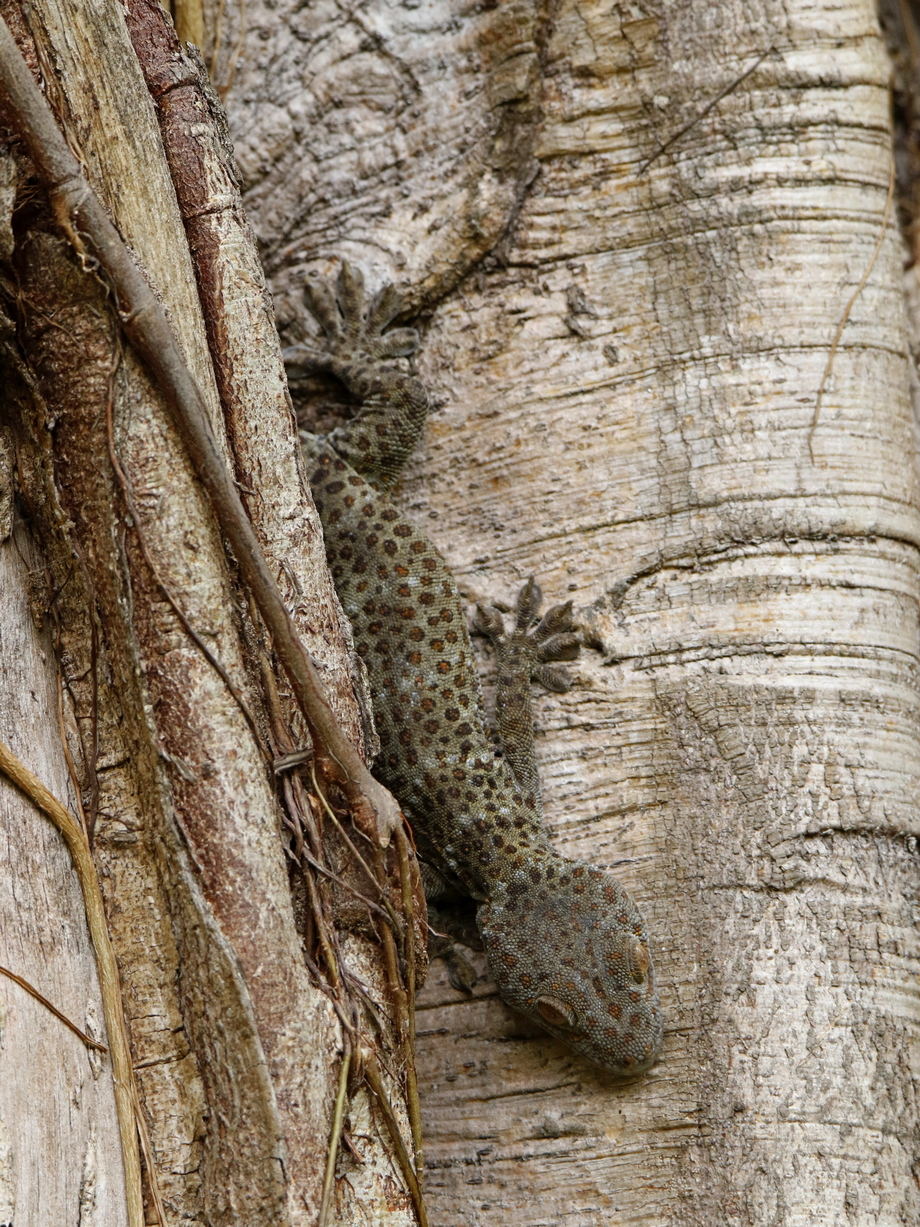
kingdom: Animalia
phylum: Chordata
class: Squamata
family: Gekkonidae
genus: Gekko
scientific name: Gekko gecko
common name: Tokay gecko
